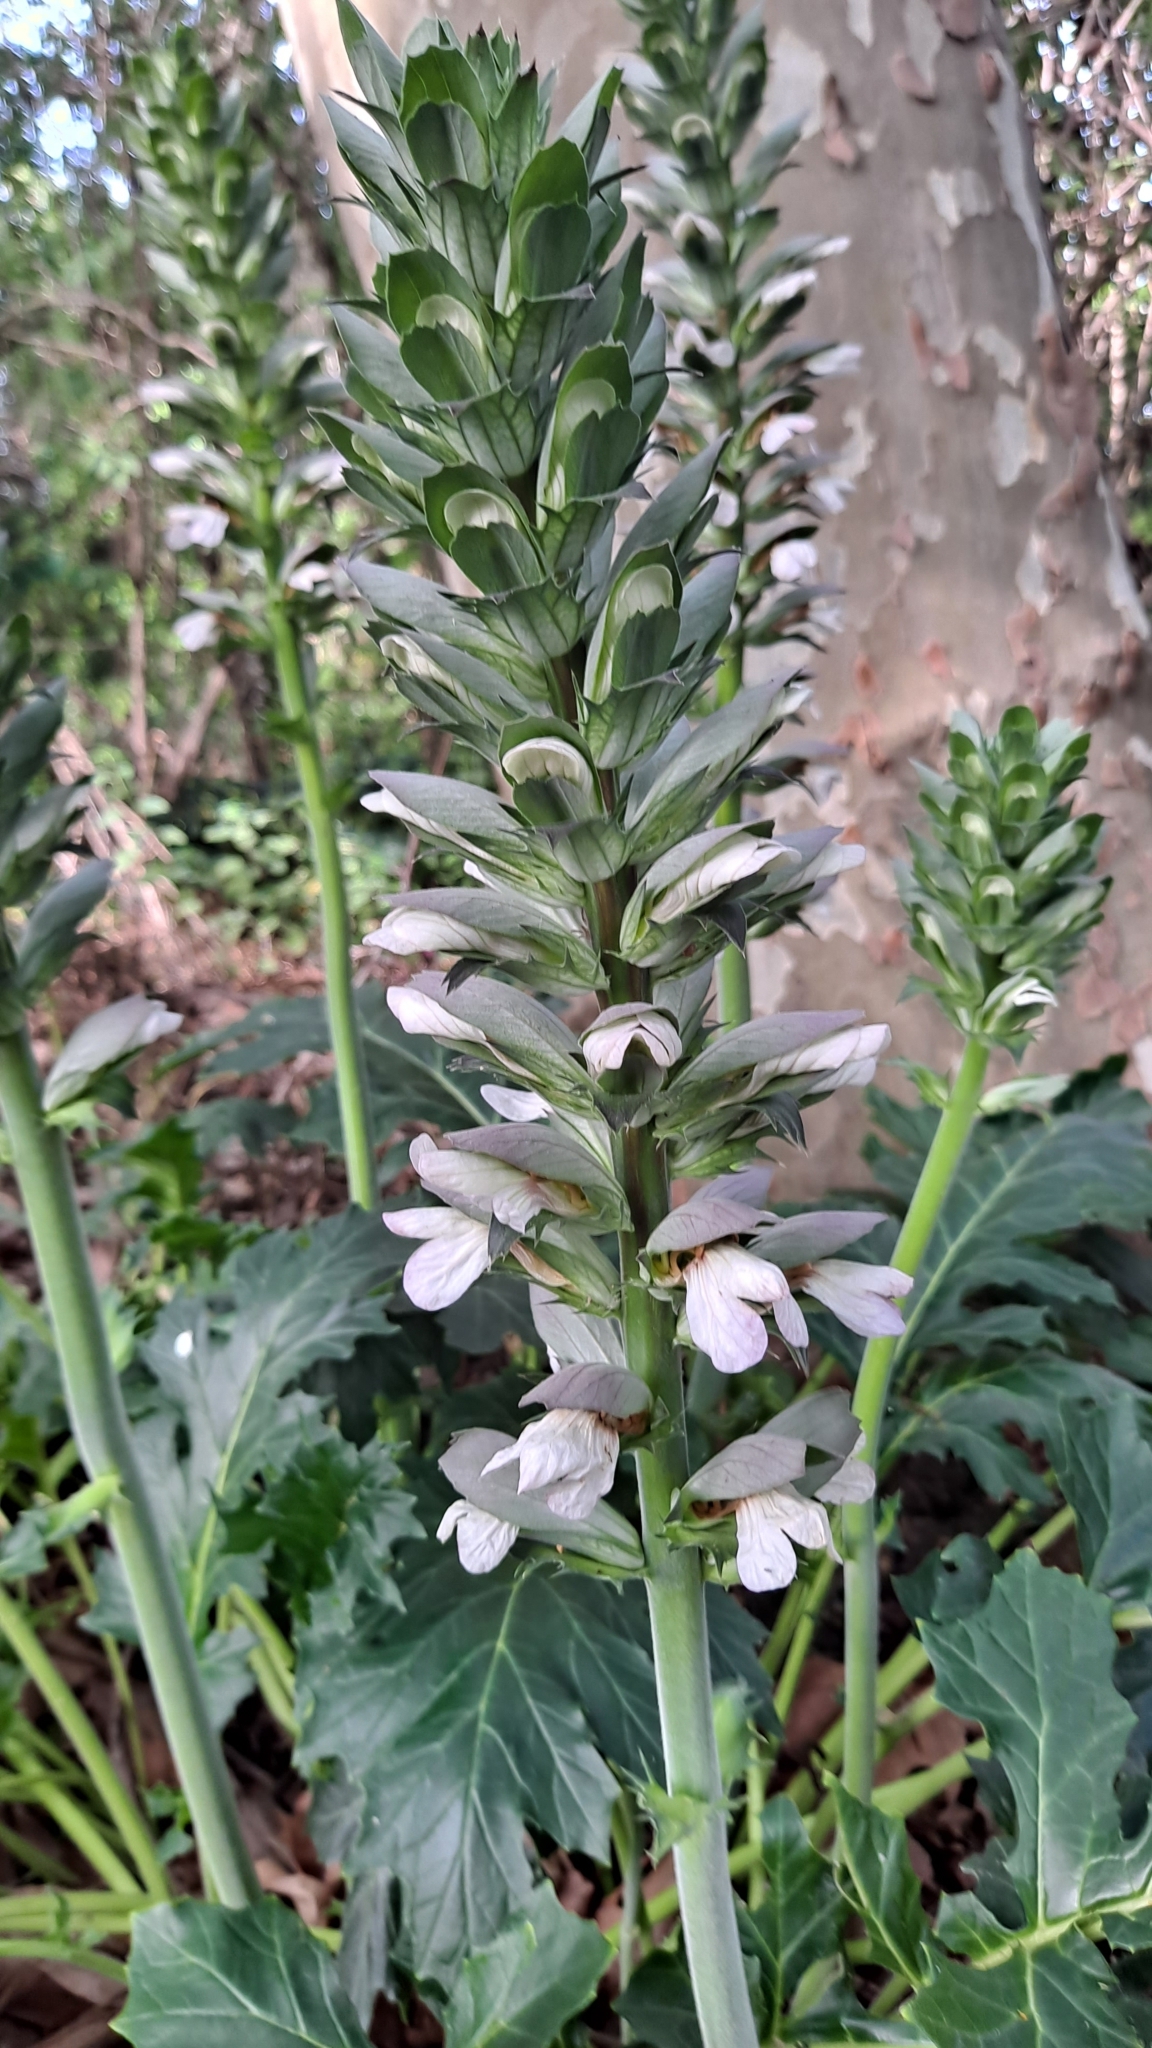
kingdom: Plantae
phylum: Tracheophyta
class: Magnoliopsida
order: Lamiales
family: Acanthaceae
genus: Acanthus
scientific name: Acanthus mollis
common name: Bear's-breech
